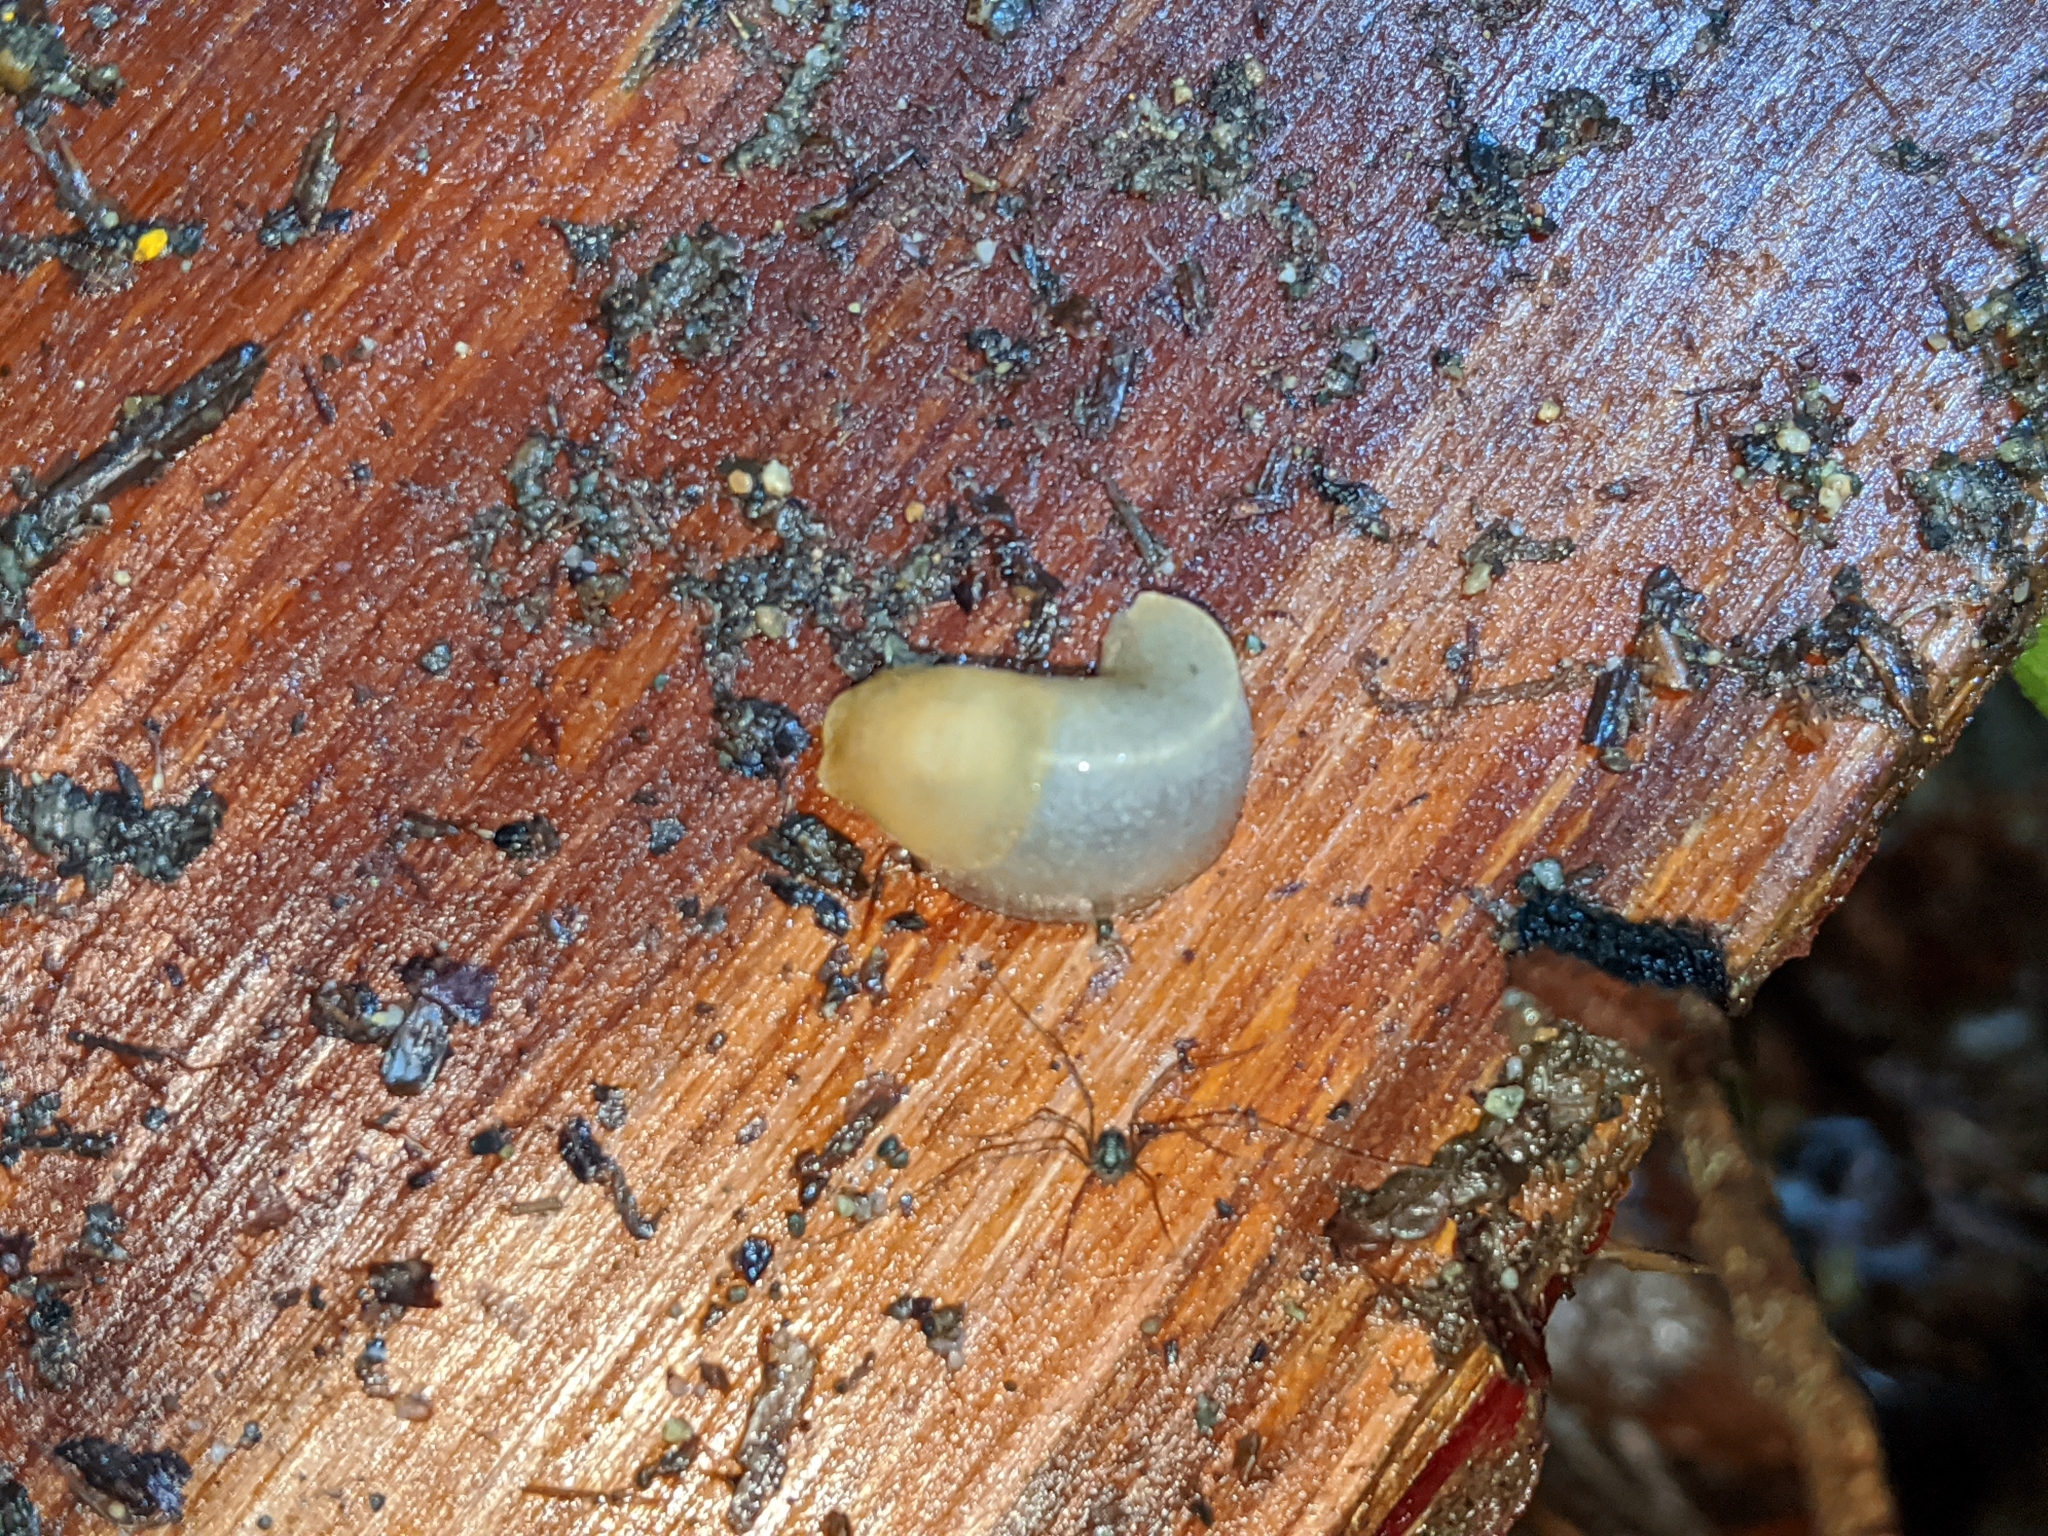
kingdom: Animalia
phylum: Mollusca
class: Gastropoda
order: Stylommatophora
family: Ariolimacidae
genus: Ariolimax
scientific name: Ariolimax columbianus
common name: Pacific banana slug
